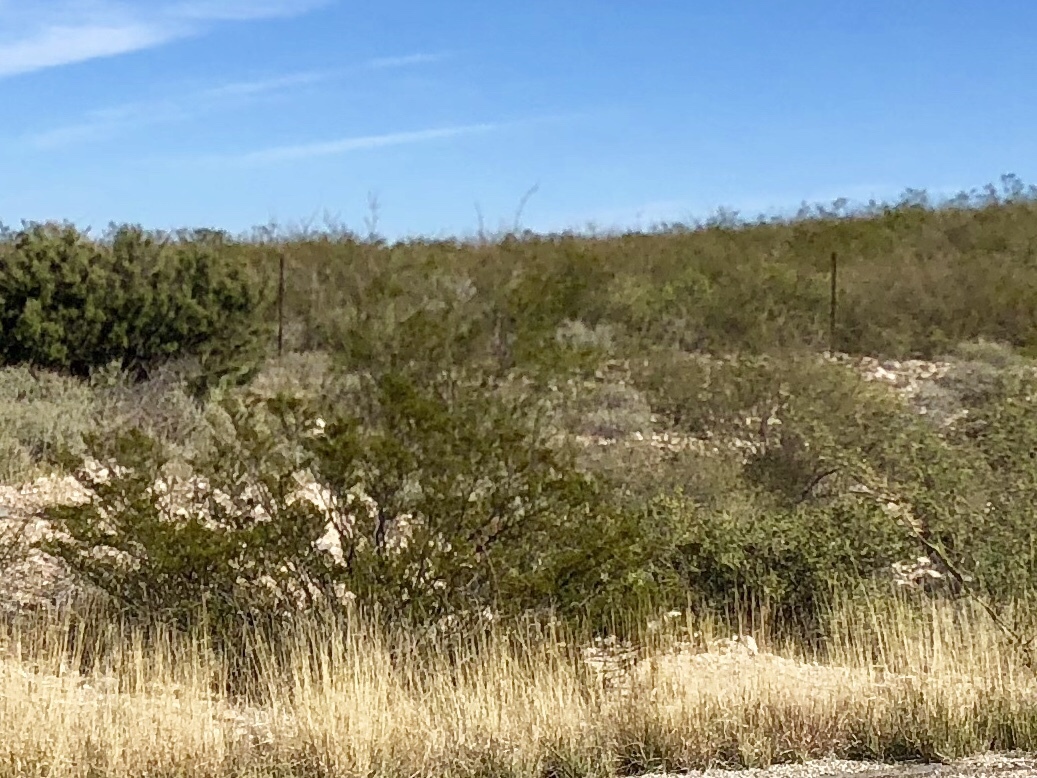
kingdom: Plantae
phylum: Tracheophyta
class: Magnoliopsida
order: Zygophyllales
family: Zygophyllaceae
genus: Larrea
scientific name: Larrea tridentata
